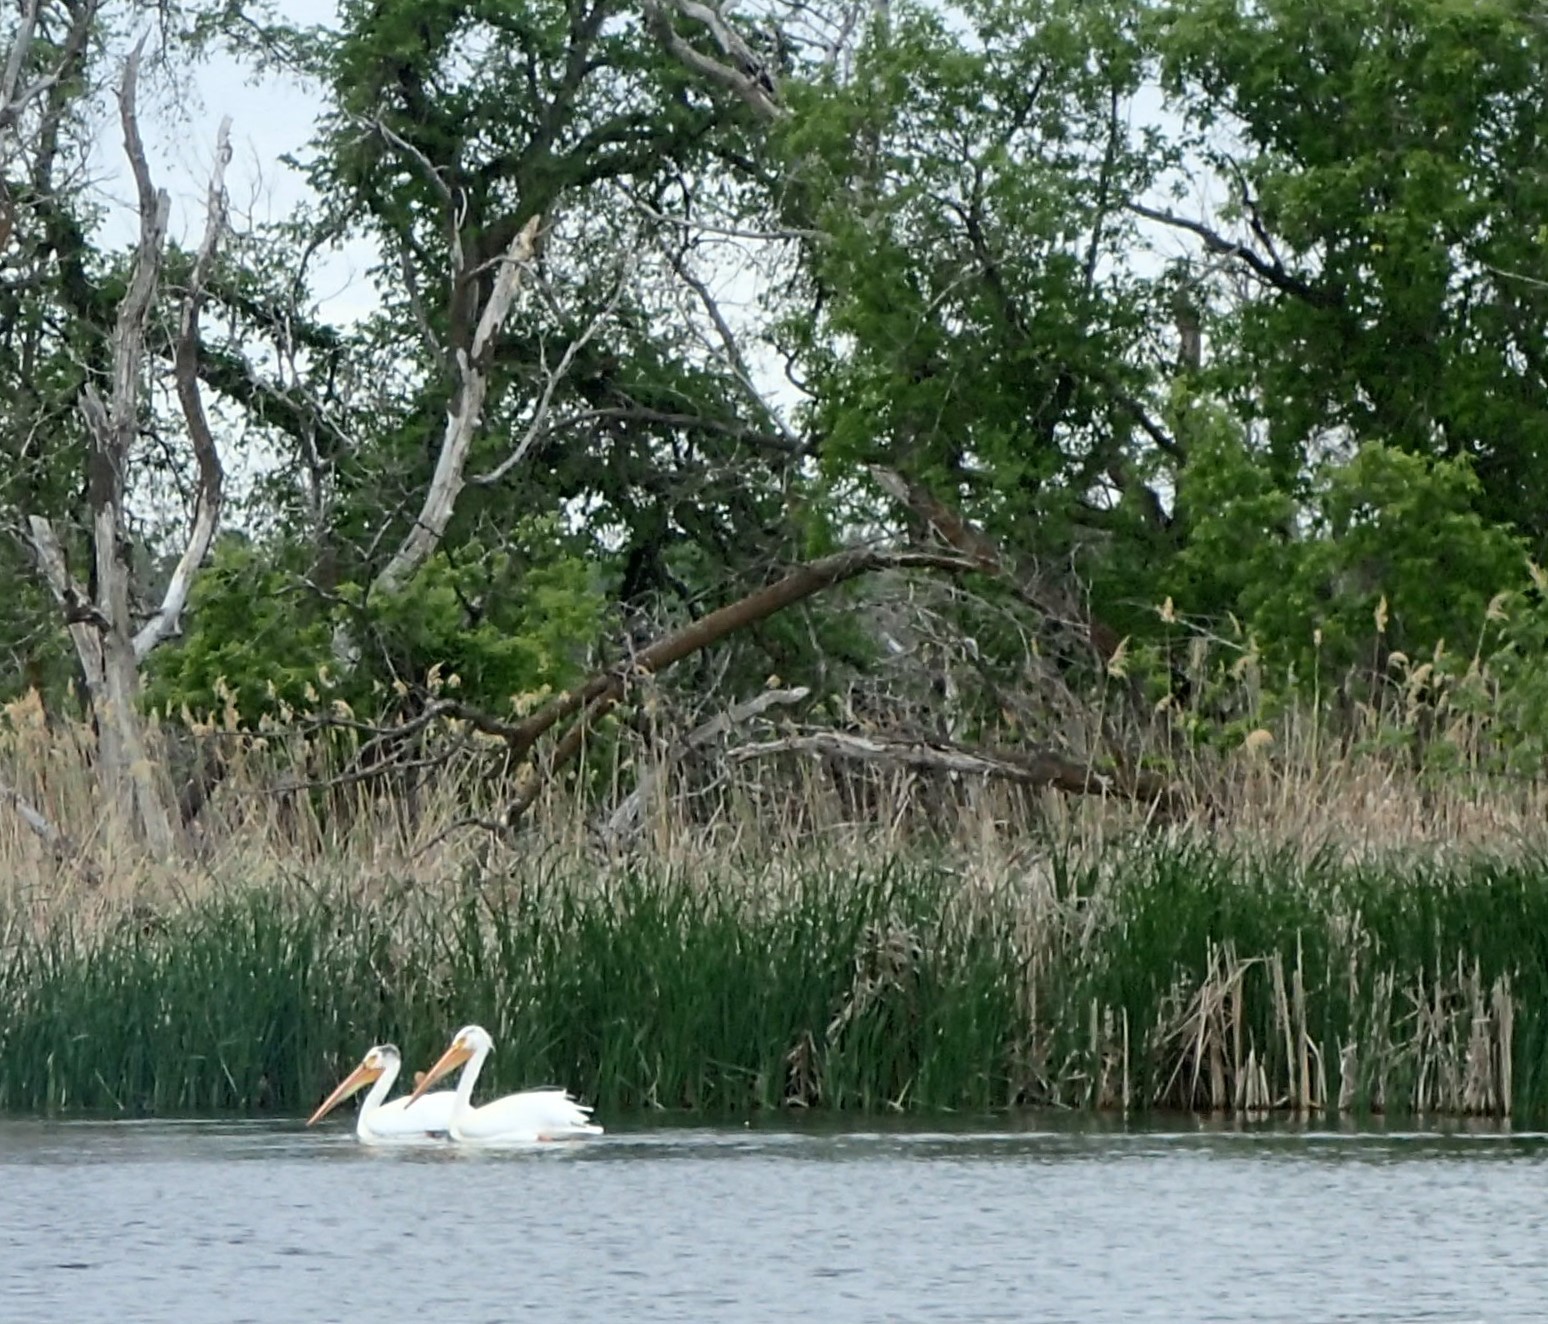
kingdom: Animalia
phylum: Chordata
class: Aves
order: Pelecaniformes
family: Pelecanidae
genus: Pelecanus
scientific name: Pelecanus erythrorhynchos
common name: American white pelican
